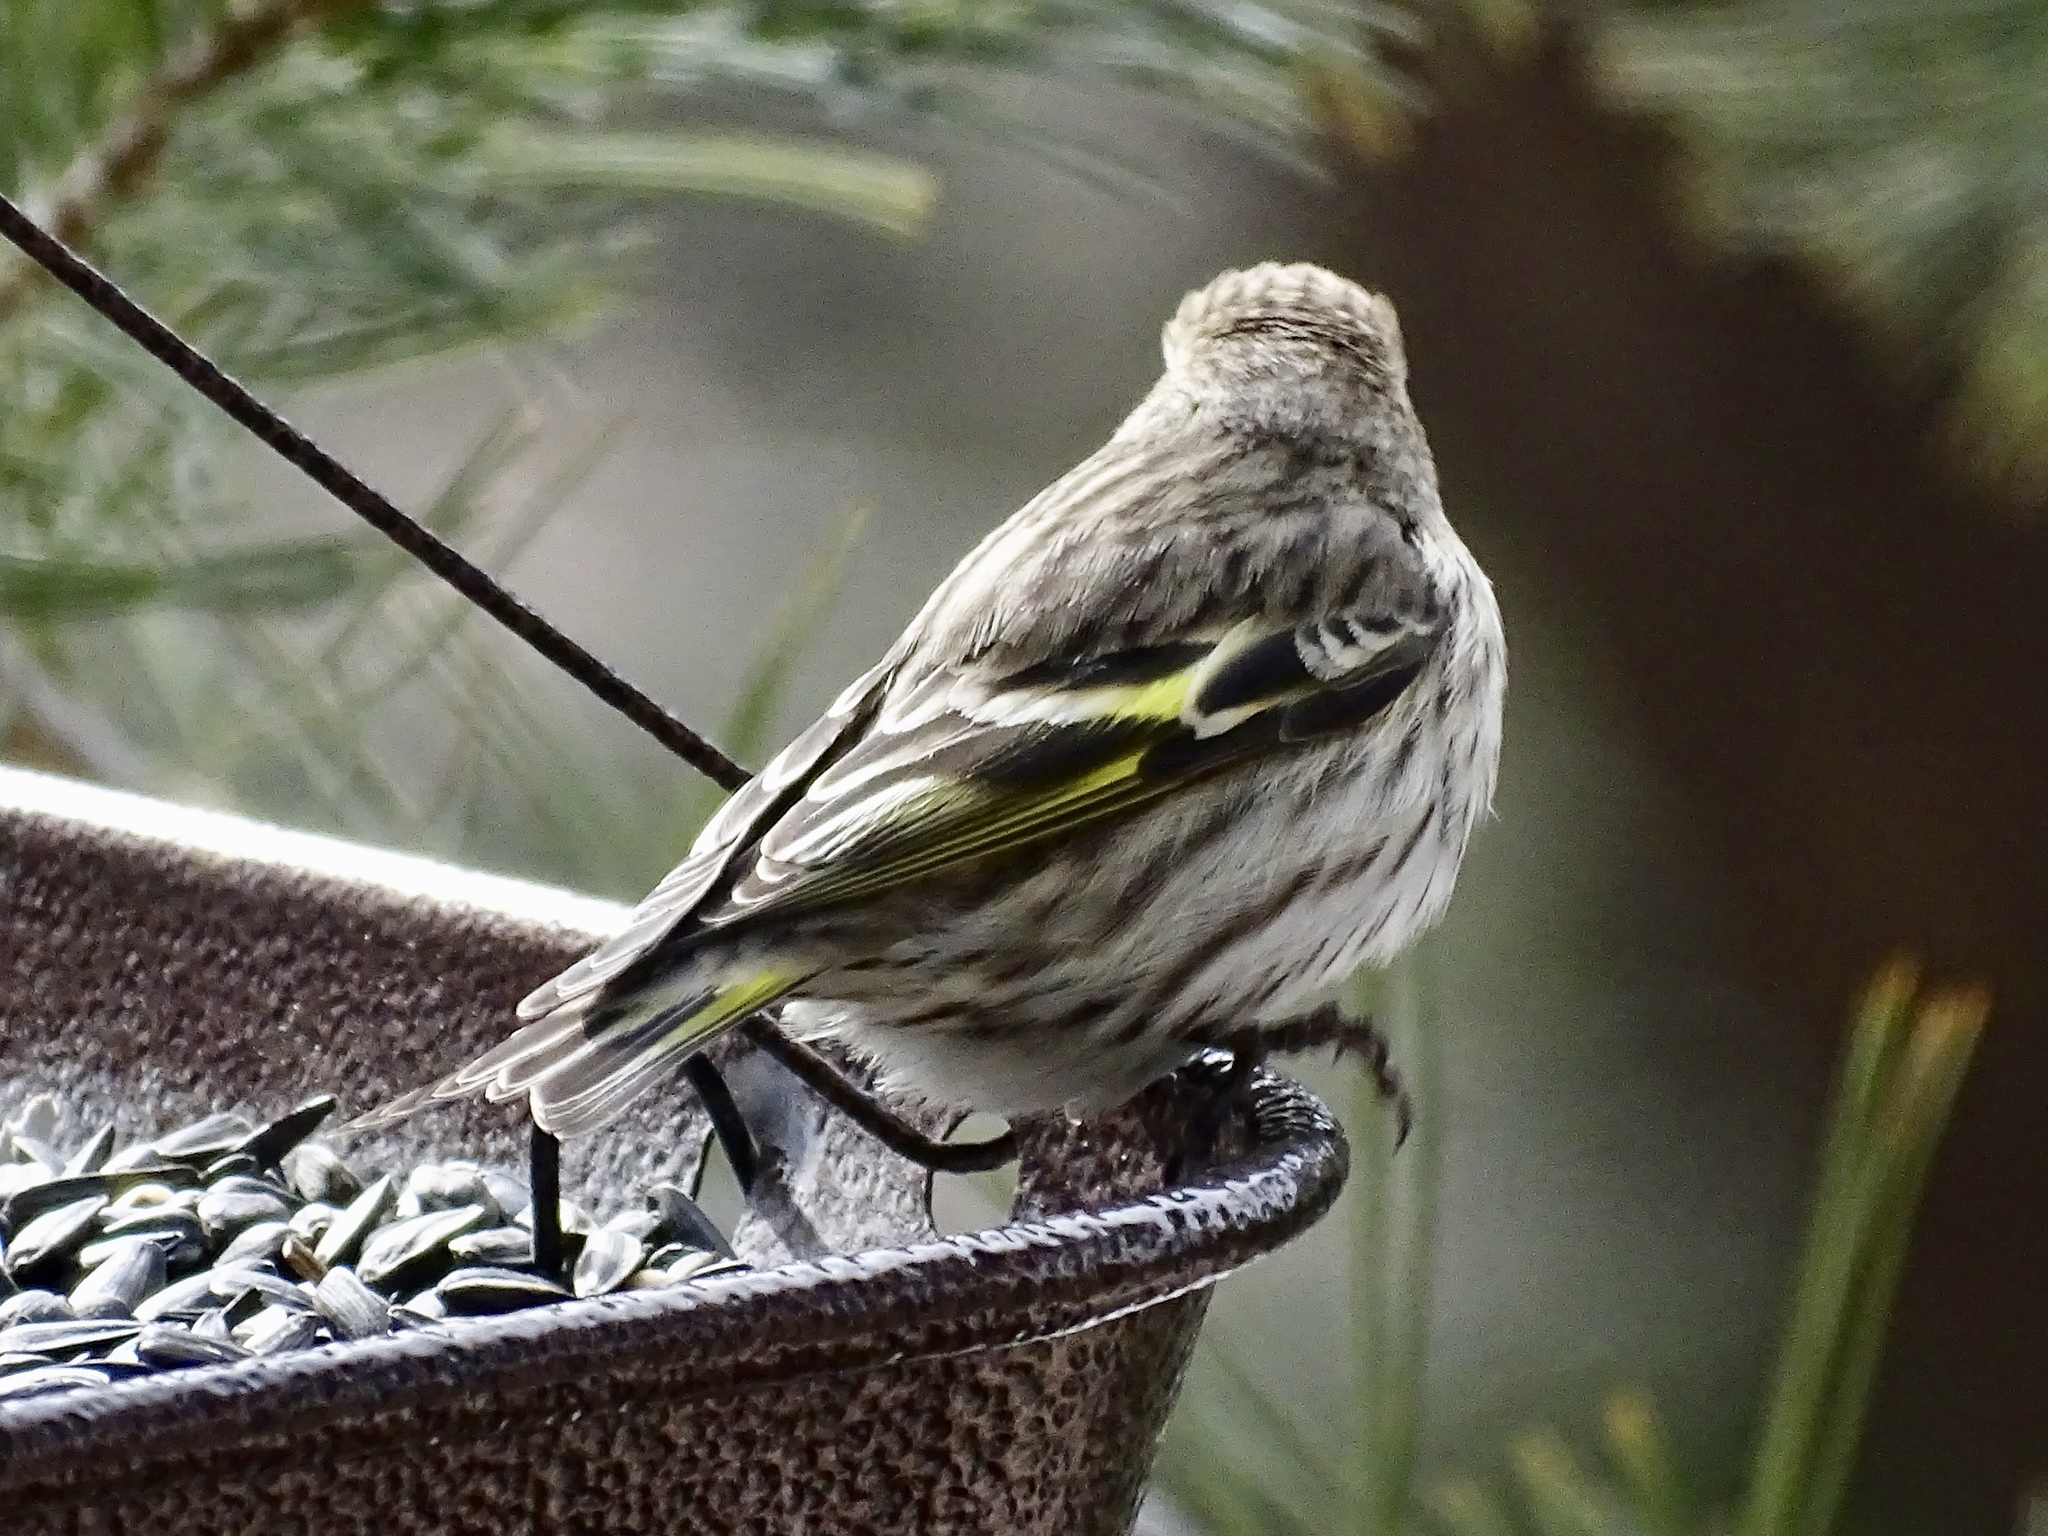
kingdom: Animalia
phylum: Chordata
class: Aves
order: Passeriformes
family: Fringillidae
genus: Spinus
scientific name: Spinus pinus
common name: Pine siskin
